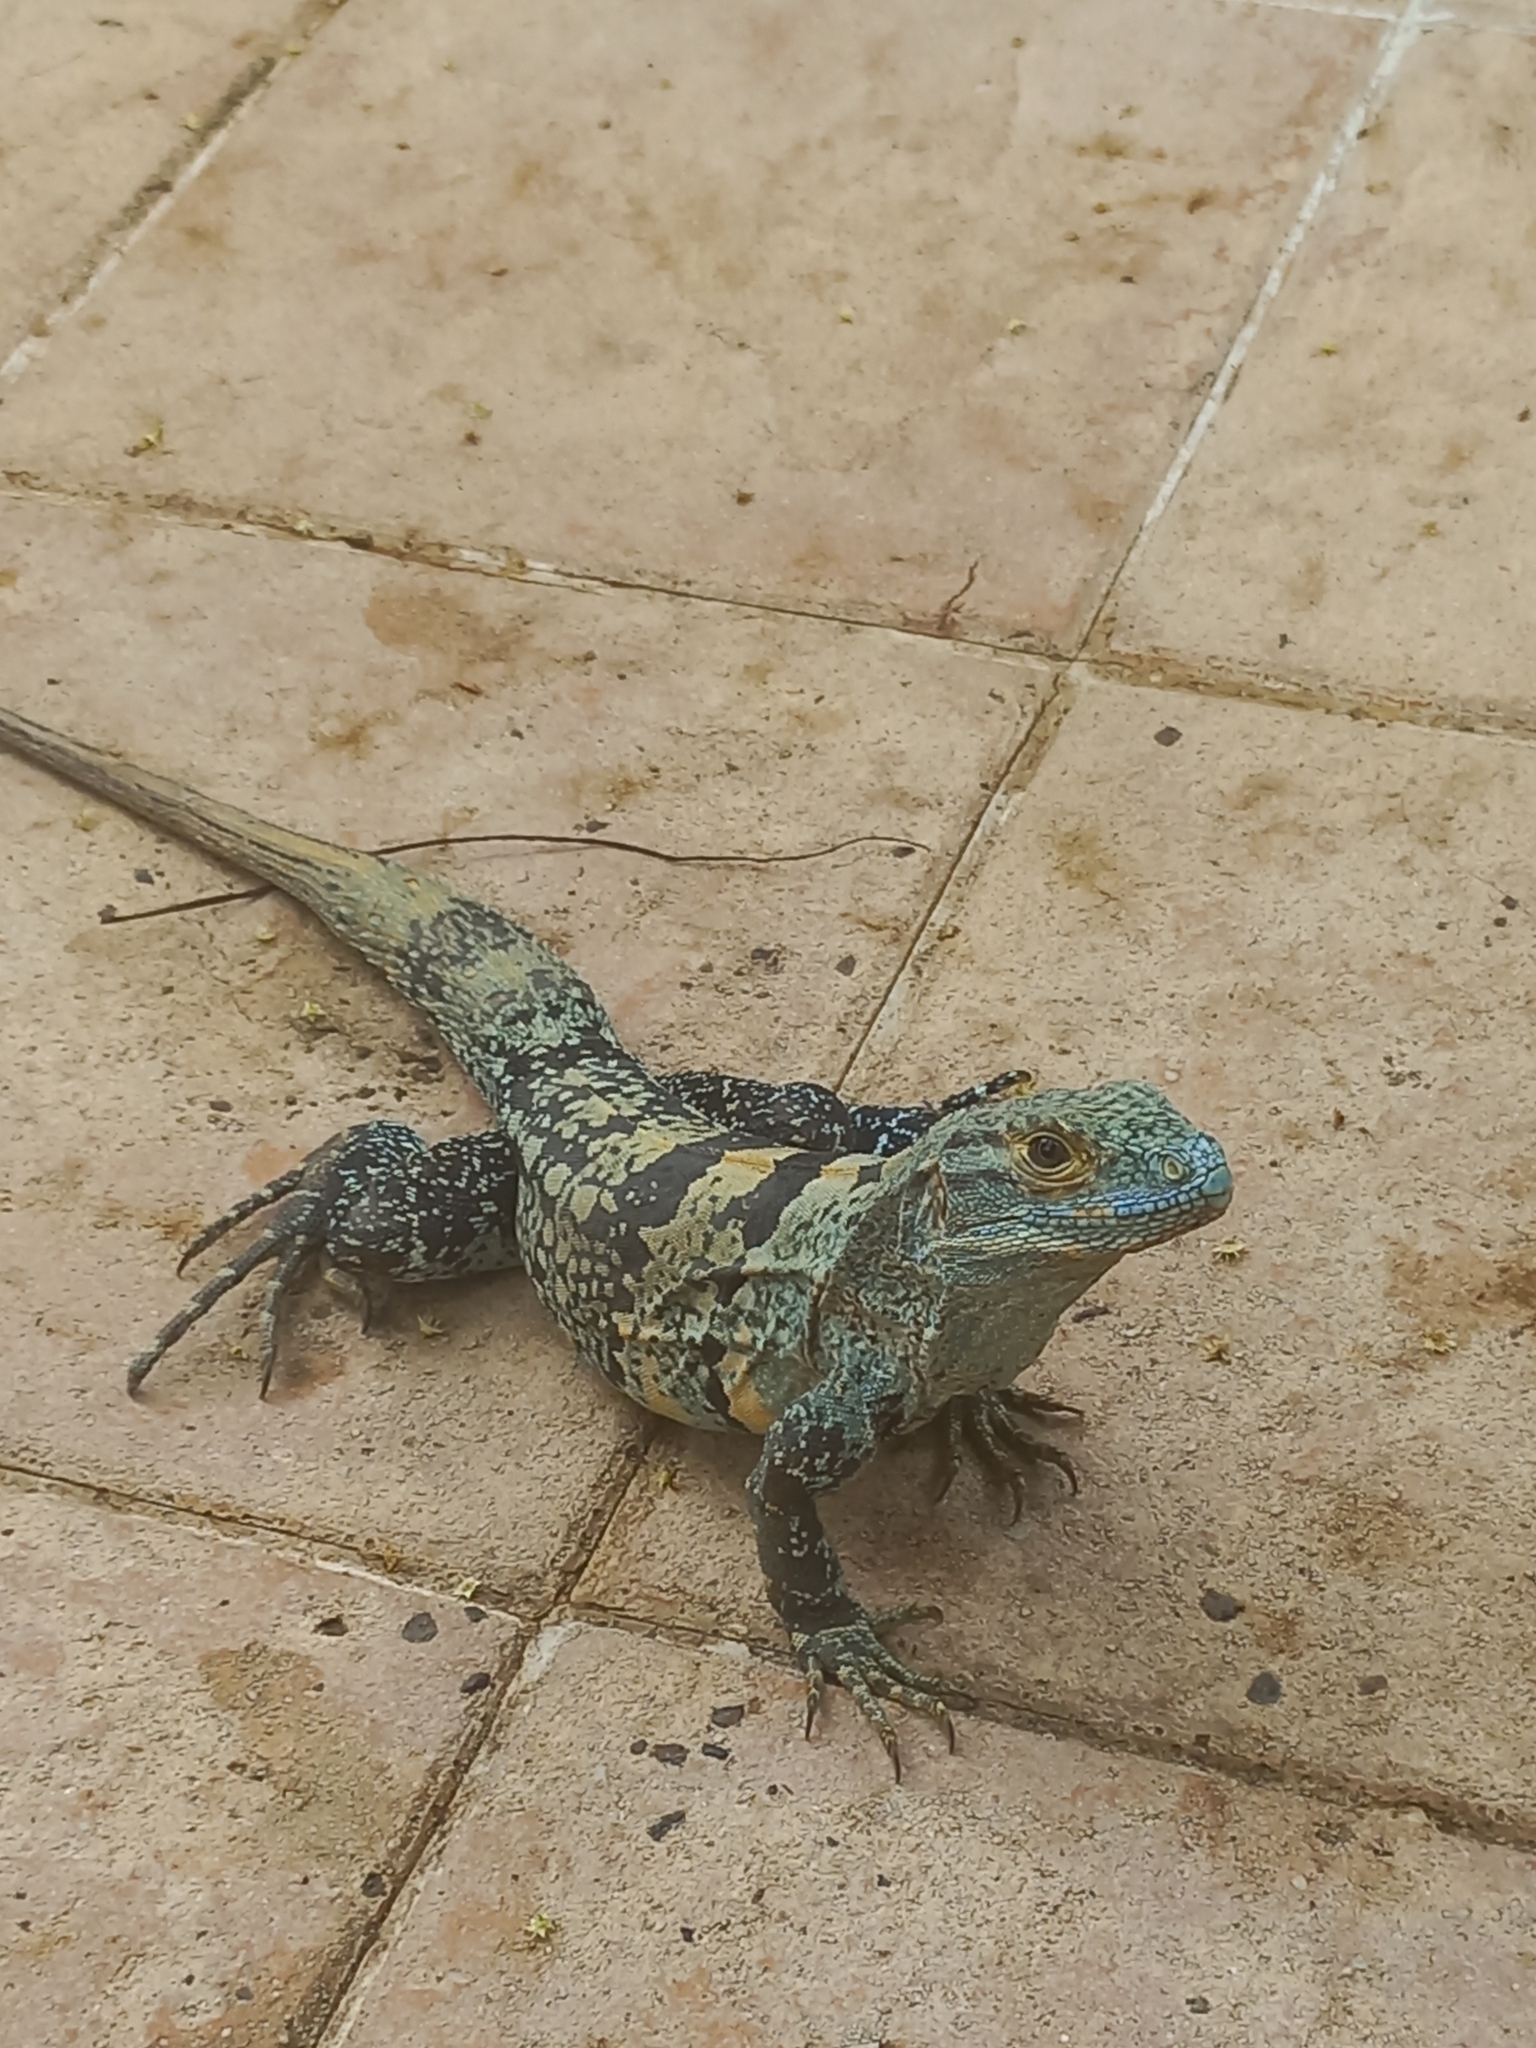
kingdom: Animalia
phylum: Chordata
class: Squamata
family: Iguanidae
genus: Ctenosaura
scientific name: Ctenosaura similis
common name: Black spiny-tailed iguana
